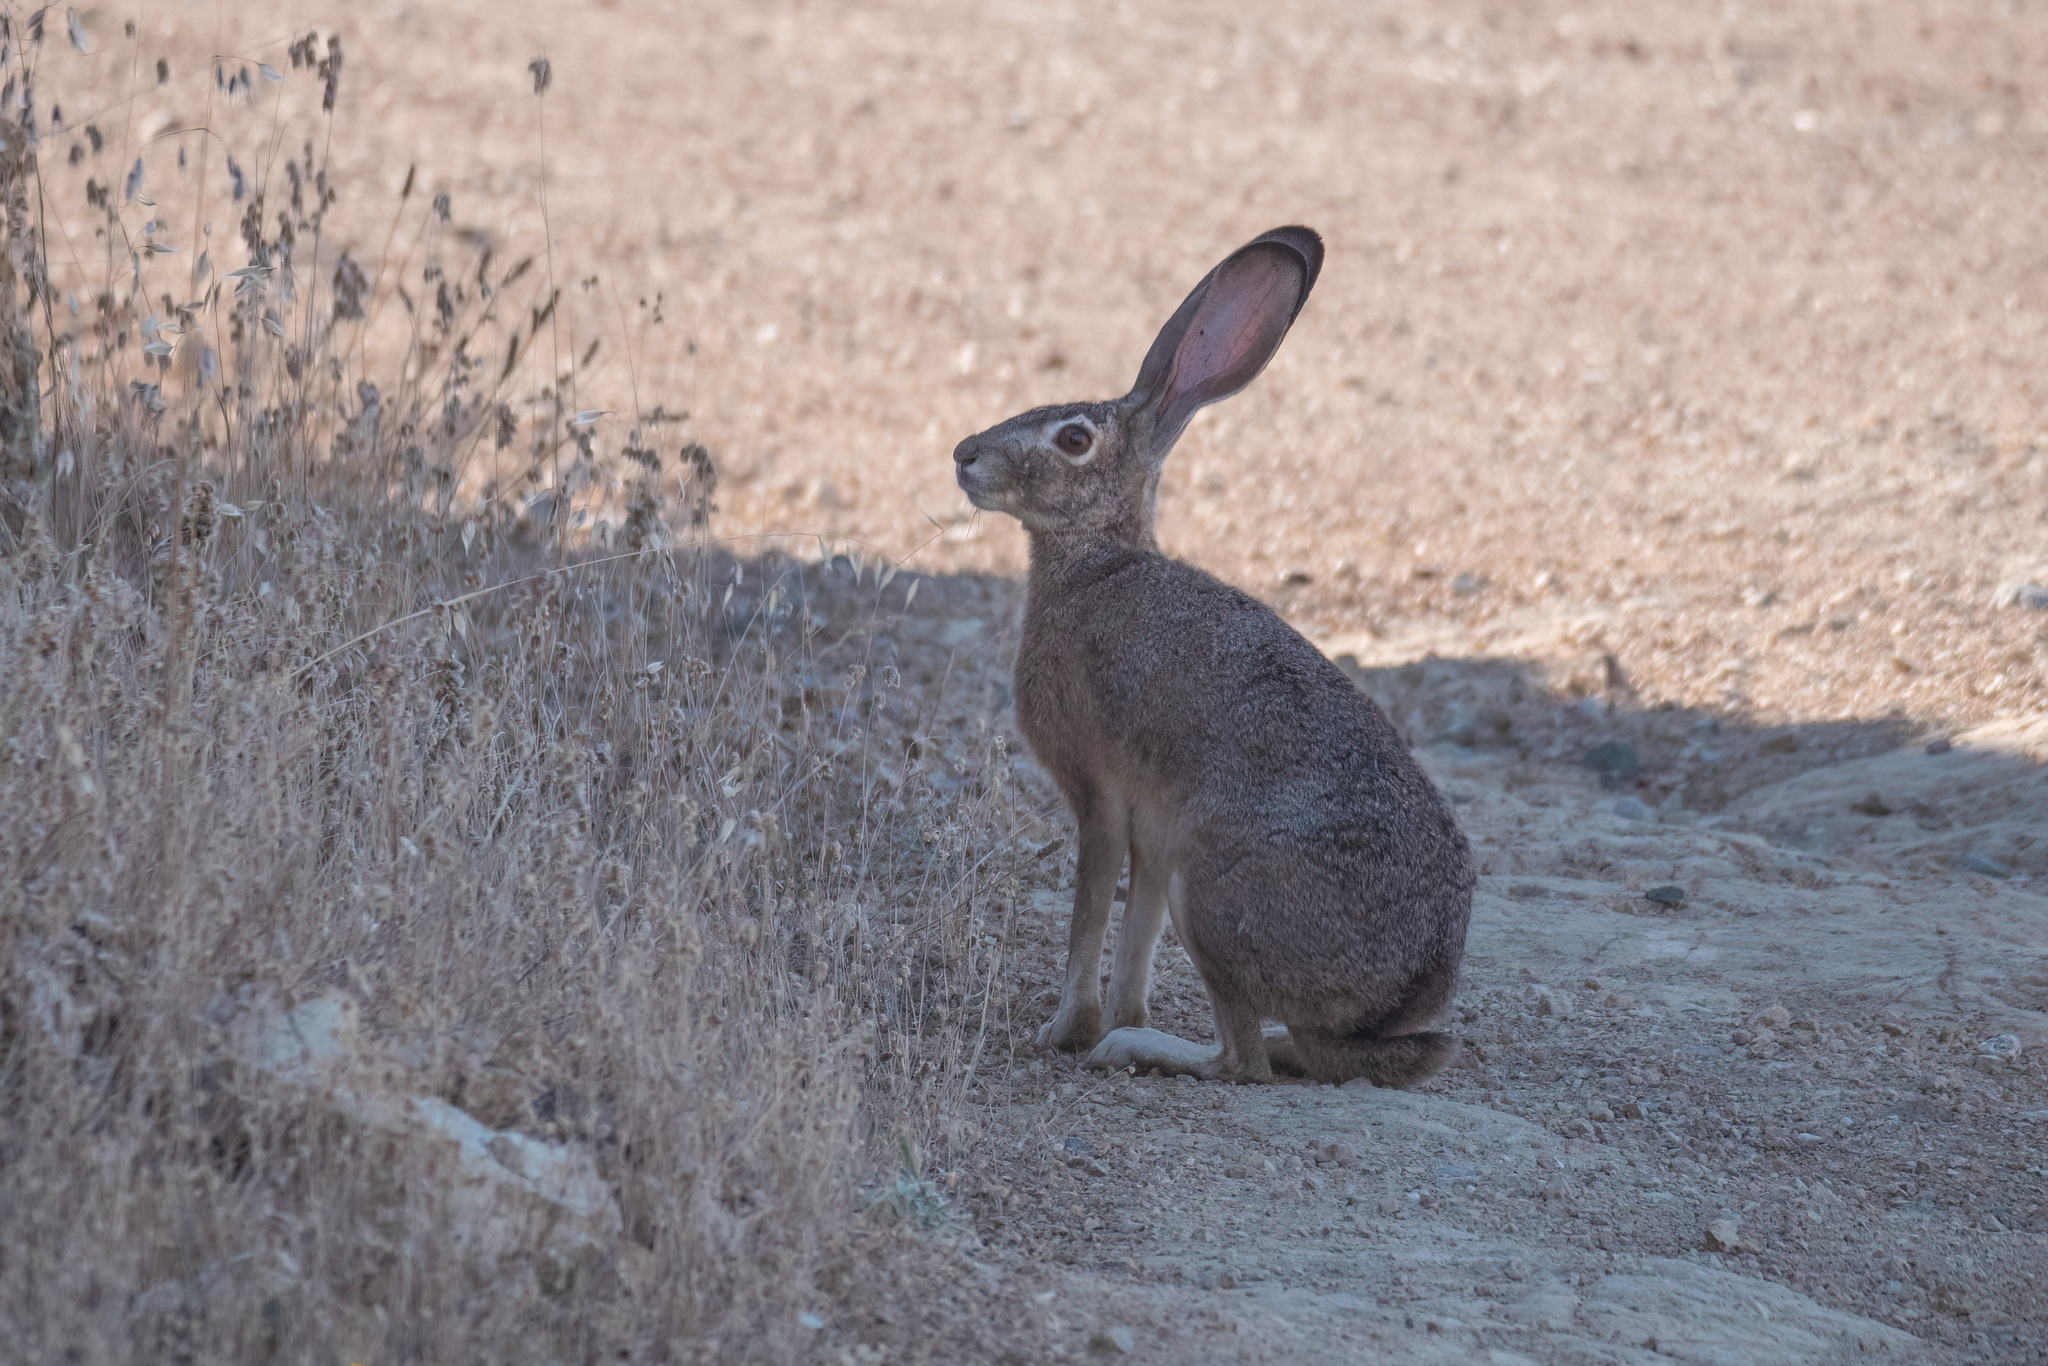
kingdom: Animalia
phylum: Chordata
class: Mammalia
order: Lagomorpha
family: Leporidae
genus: Lepus
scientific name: Lepus californicus
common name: Black-tailed jackrabbit
